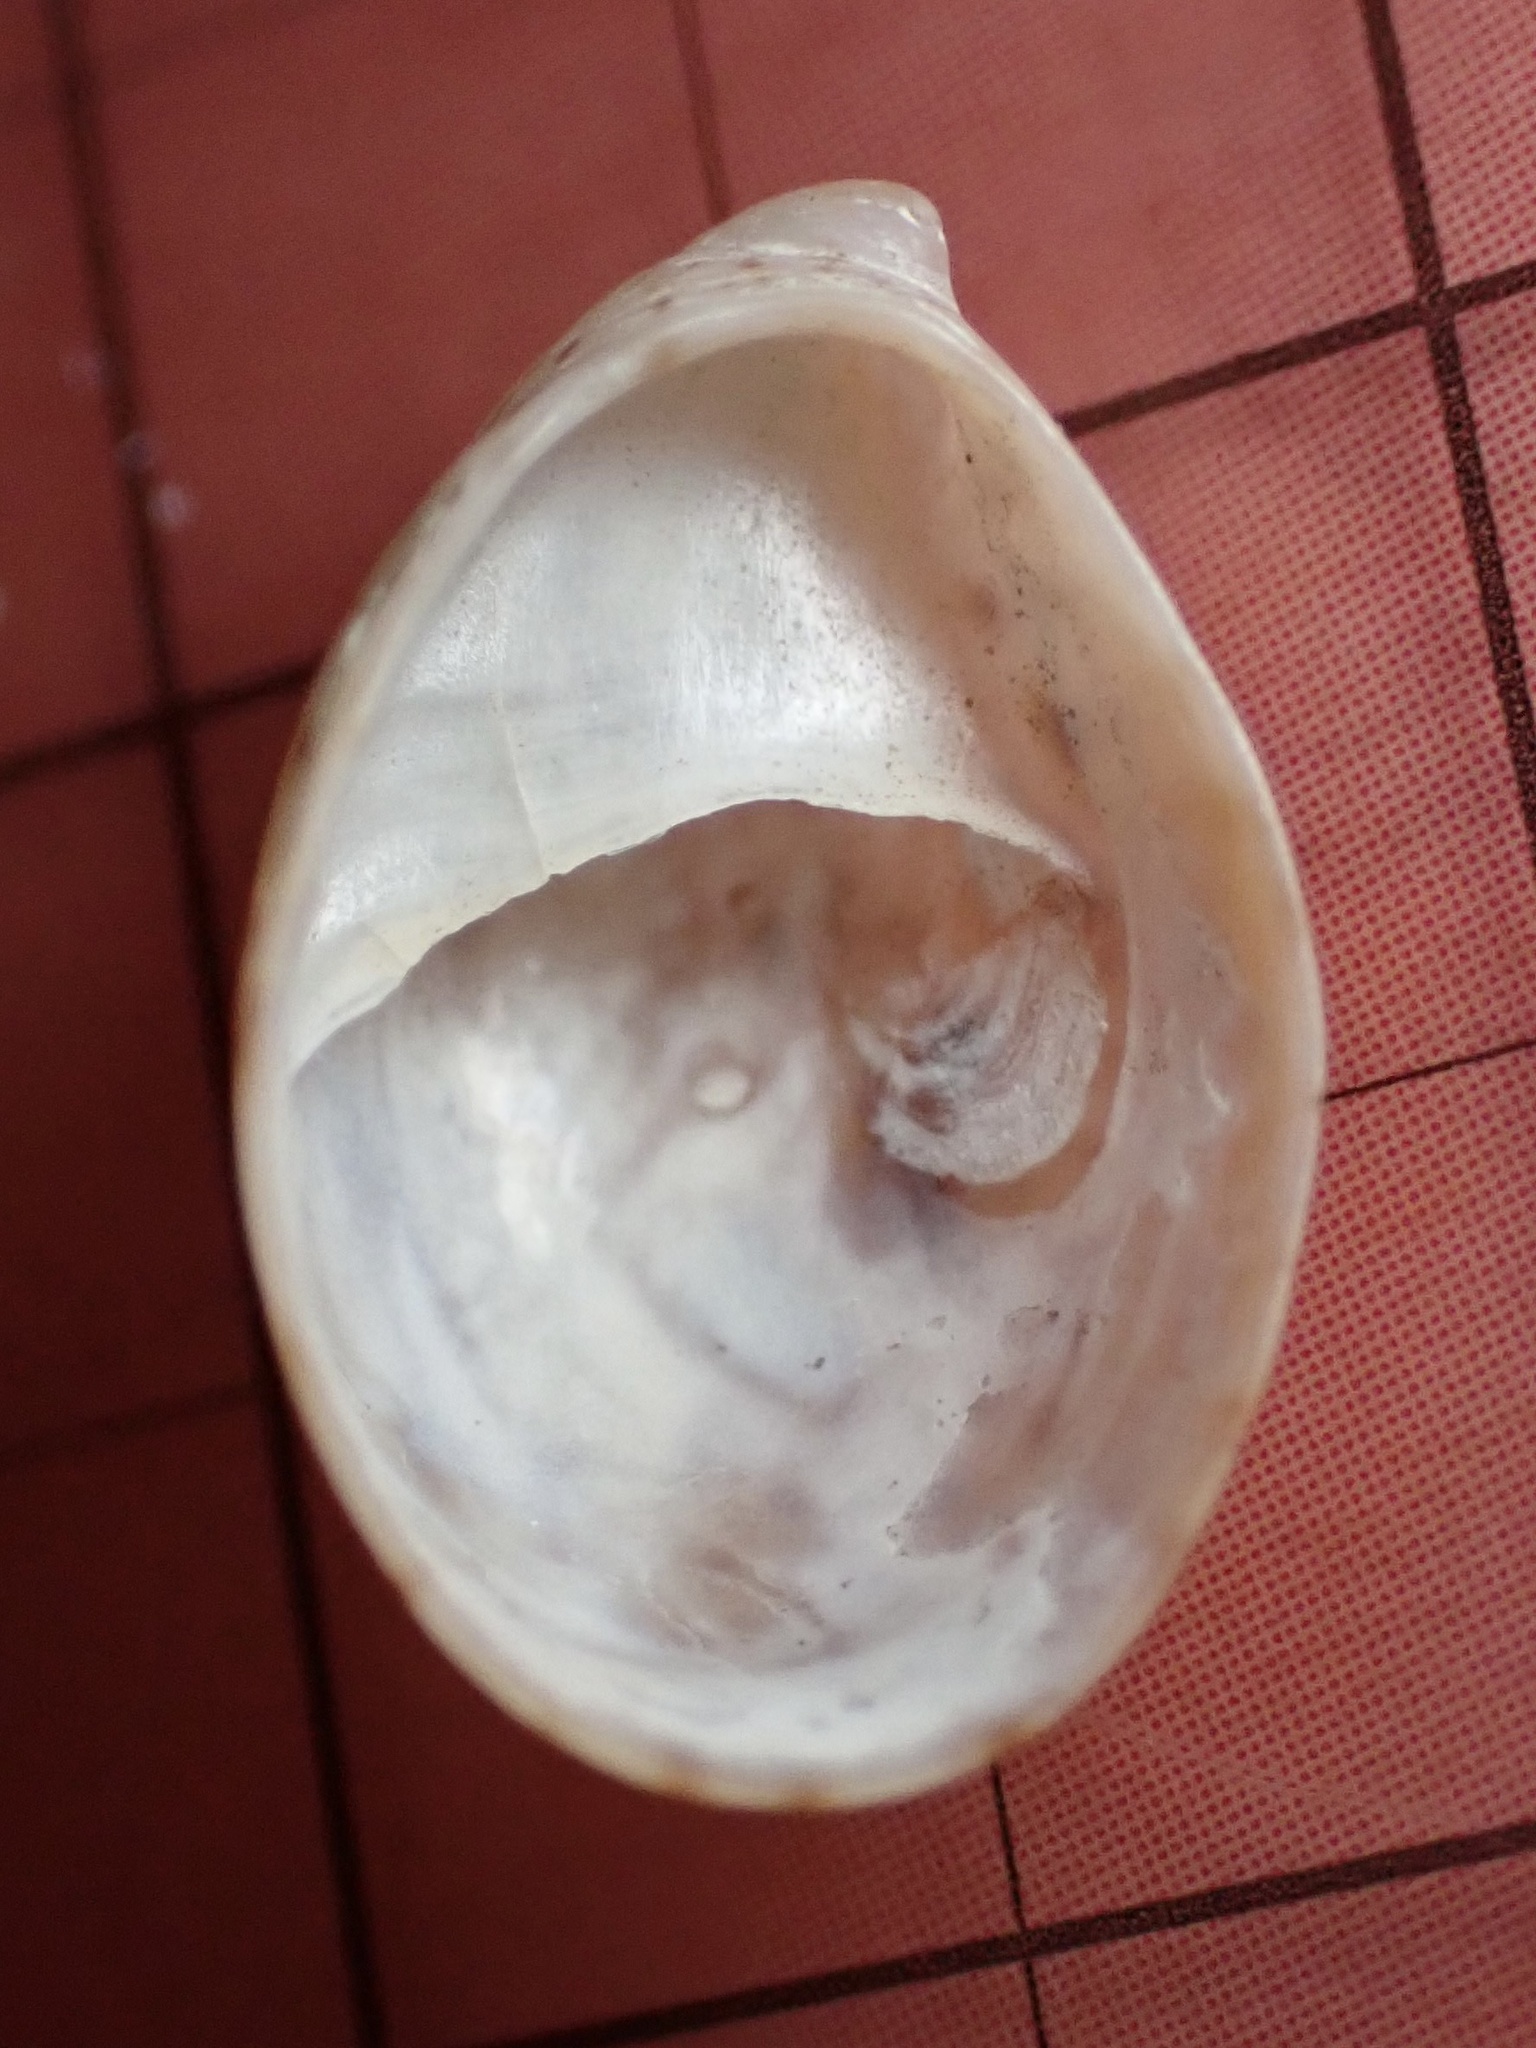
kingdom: Animalia
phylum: Mollusca
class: Gastropoda
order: Littorinimorpha
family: Calyptraeidae
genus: Crepidula
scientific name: Crepidula convexa
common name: Convex slippersnail
